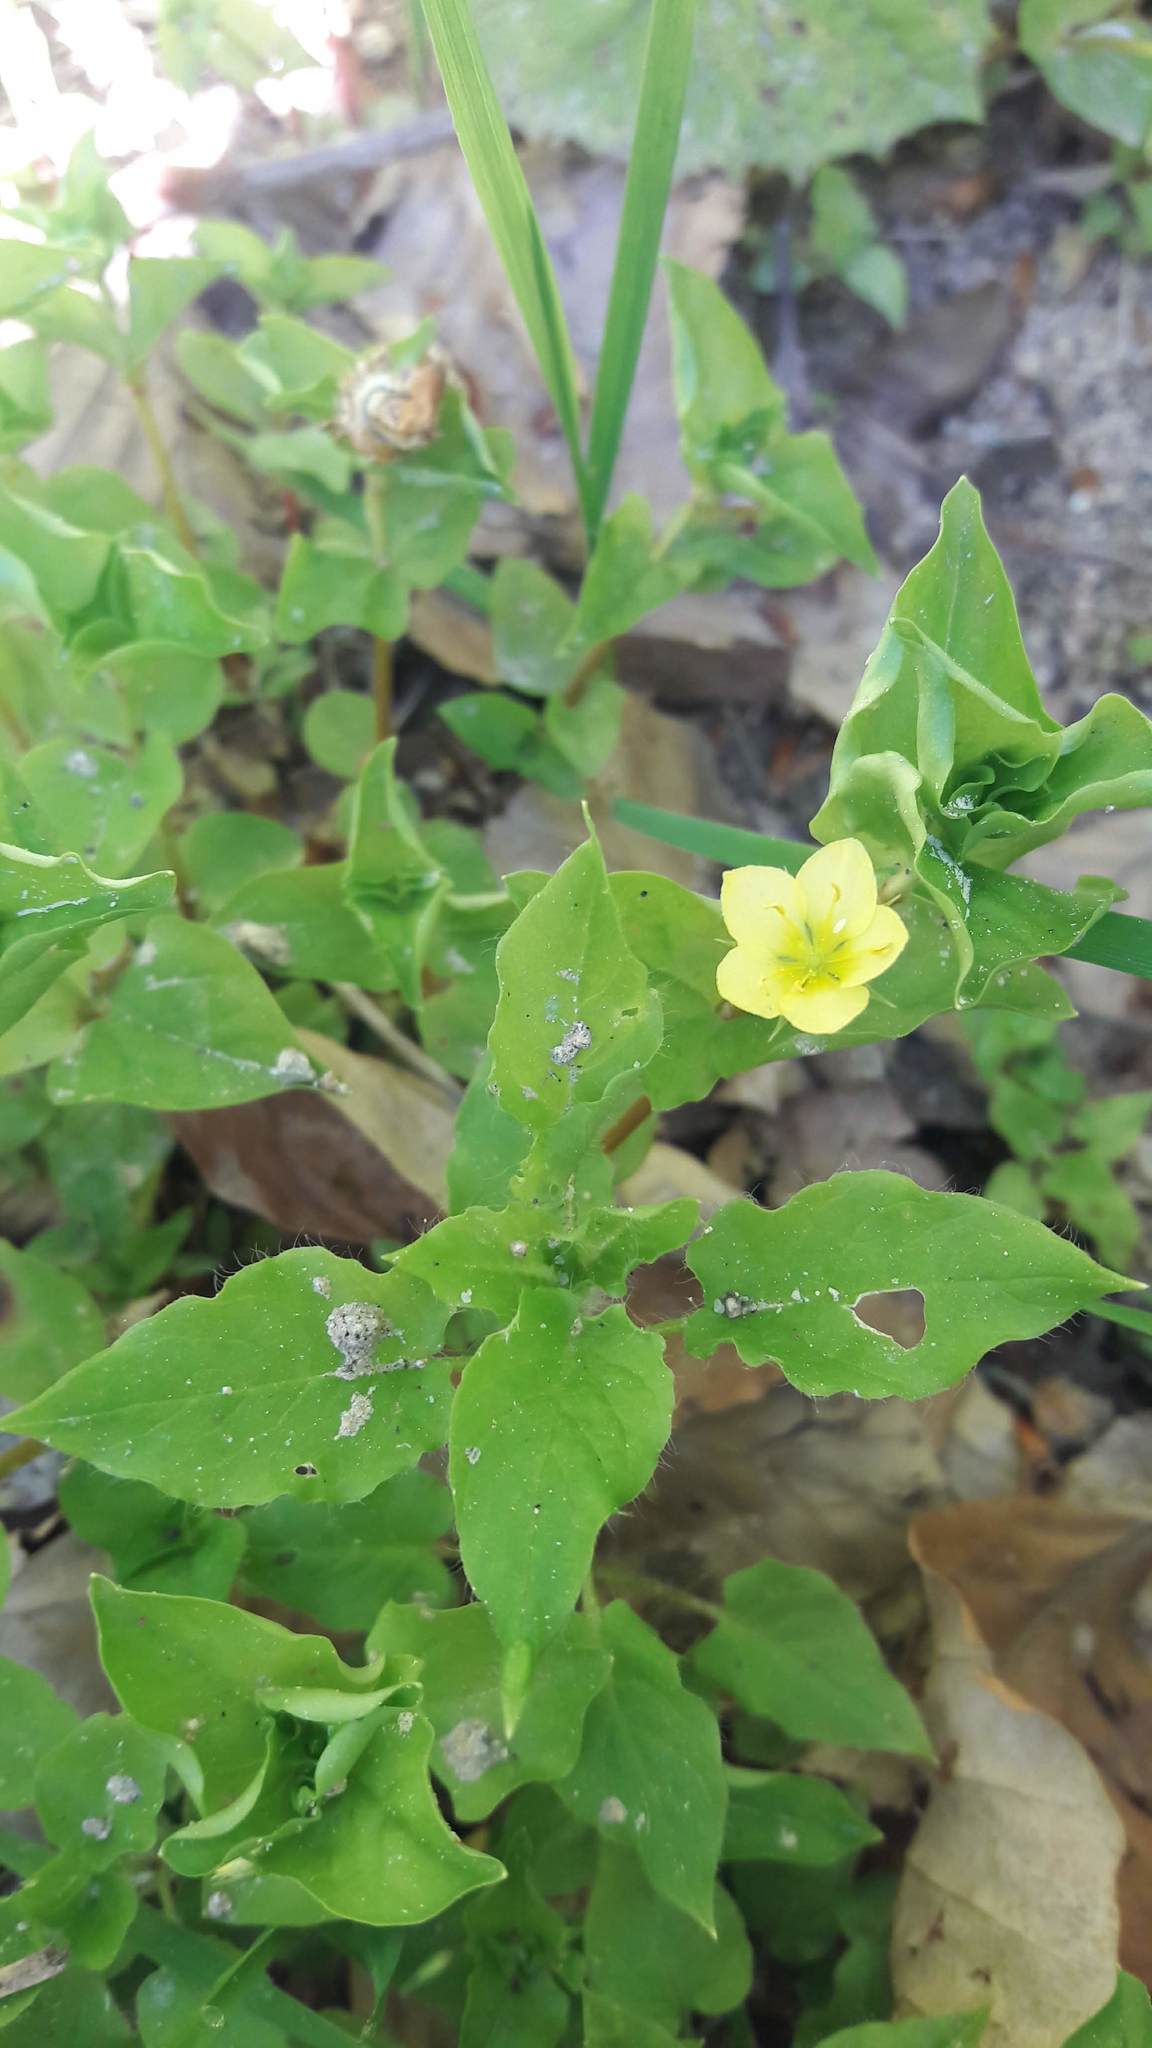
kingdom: Plantae
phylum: Tracheophyta
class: Magnoliopsida
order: Ericales
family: Primulaceae
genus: Lysimachia
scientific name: Lysimachia nemorum
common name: Yellow pimpernel
